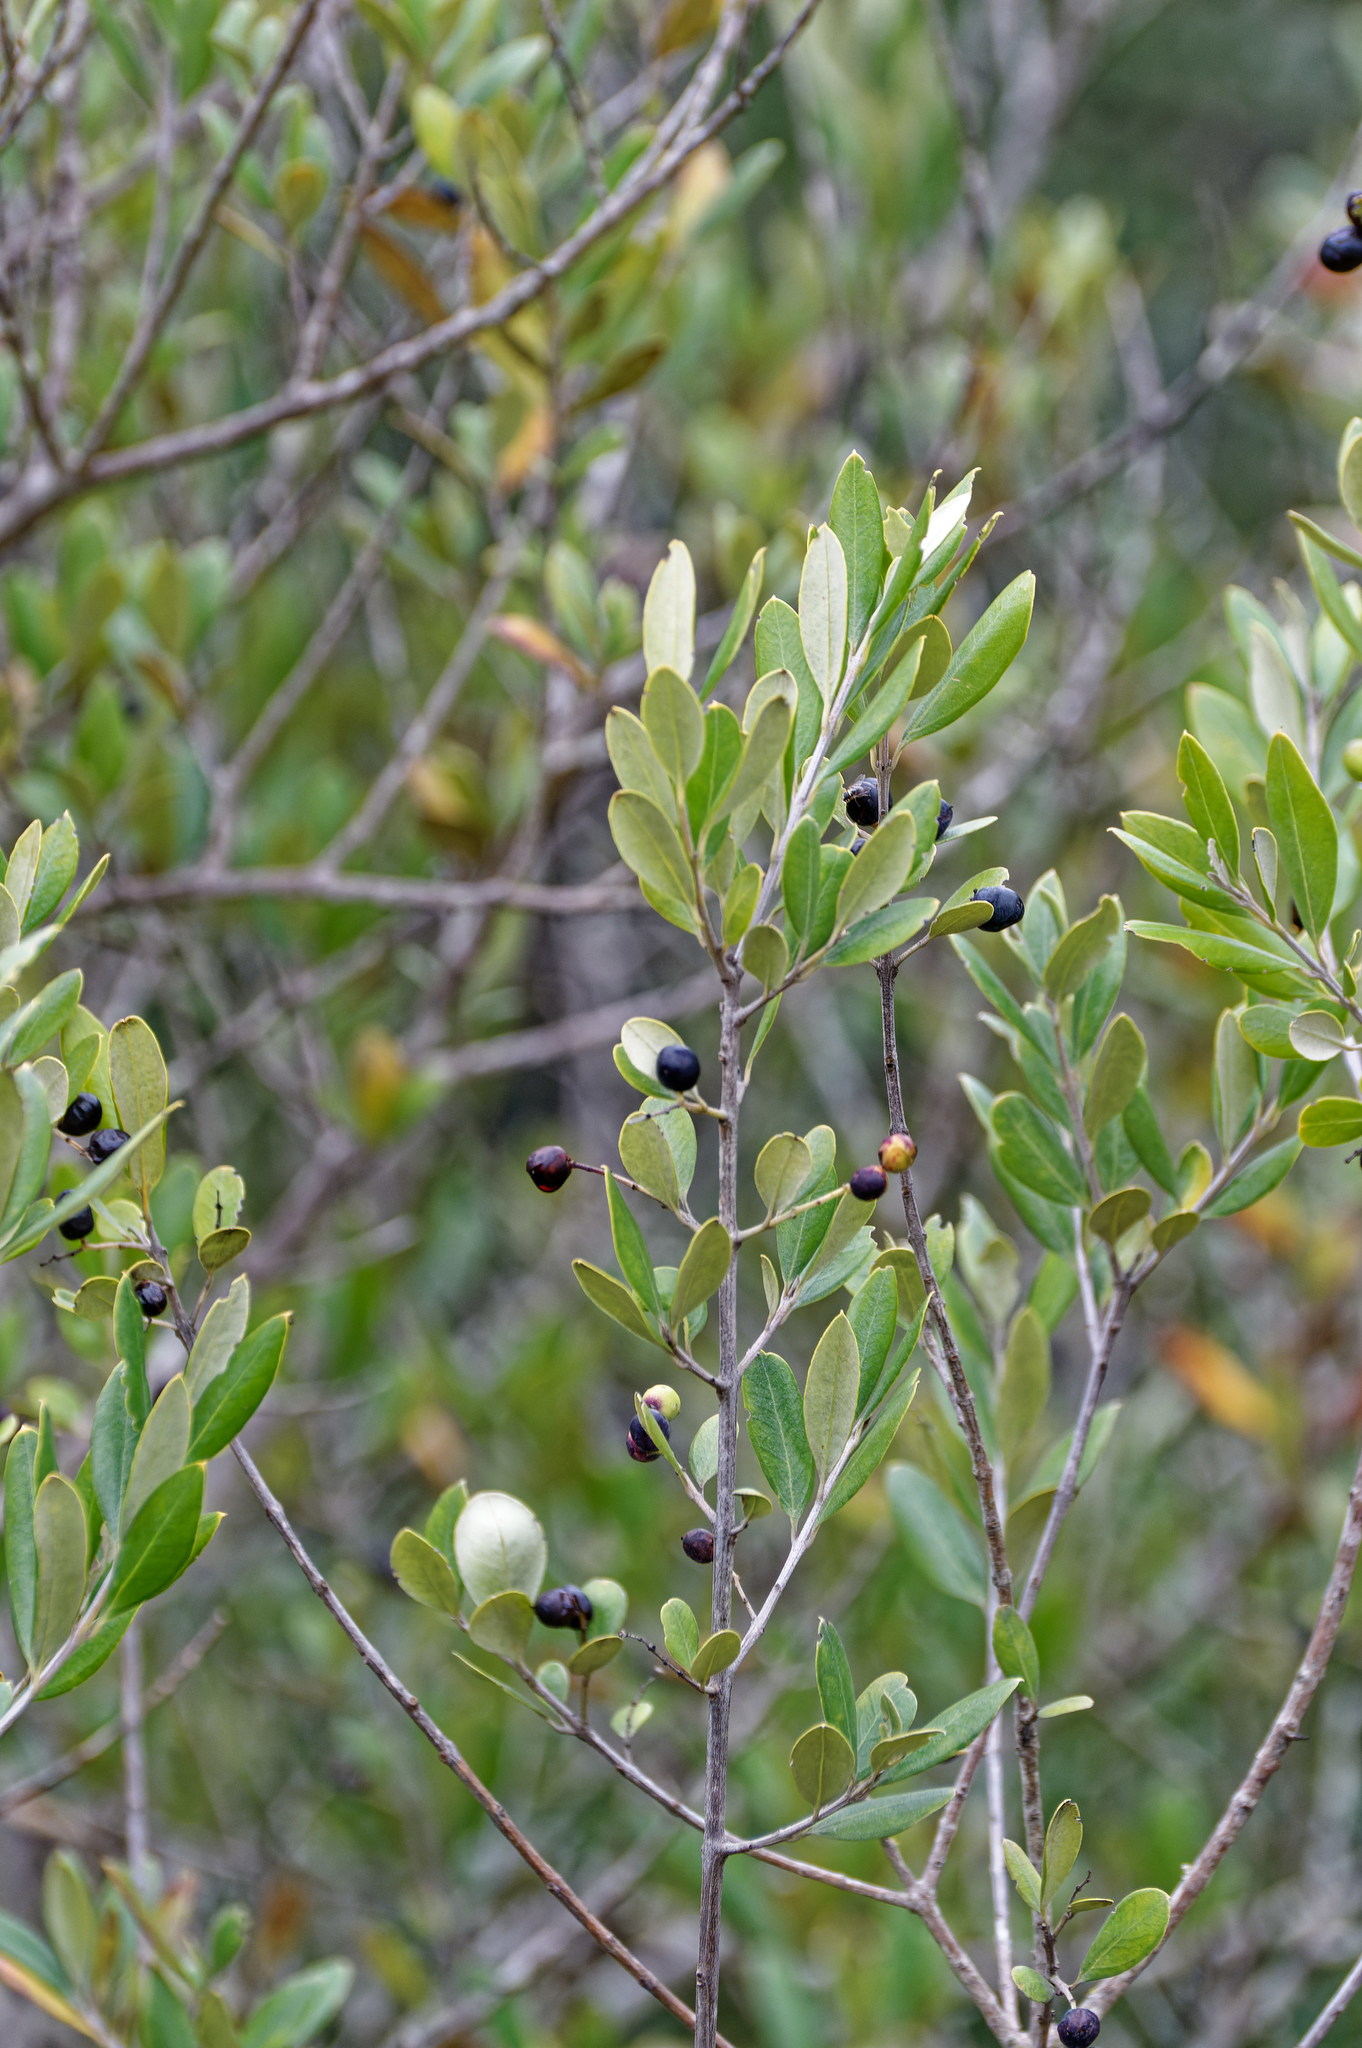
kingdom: Plantae
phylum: Tracheophyta
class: Magnoliopsida
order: Lamiales
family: Oleaceae
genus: Olea
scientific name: Olea europaea
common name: Olive
